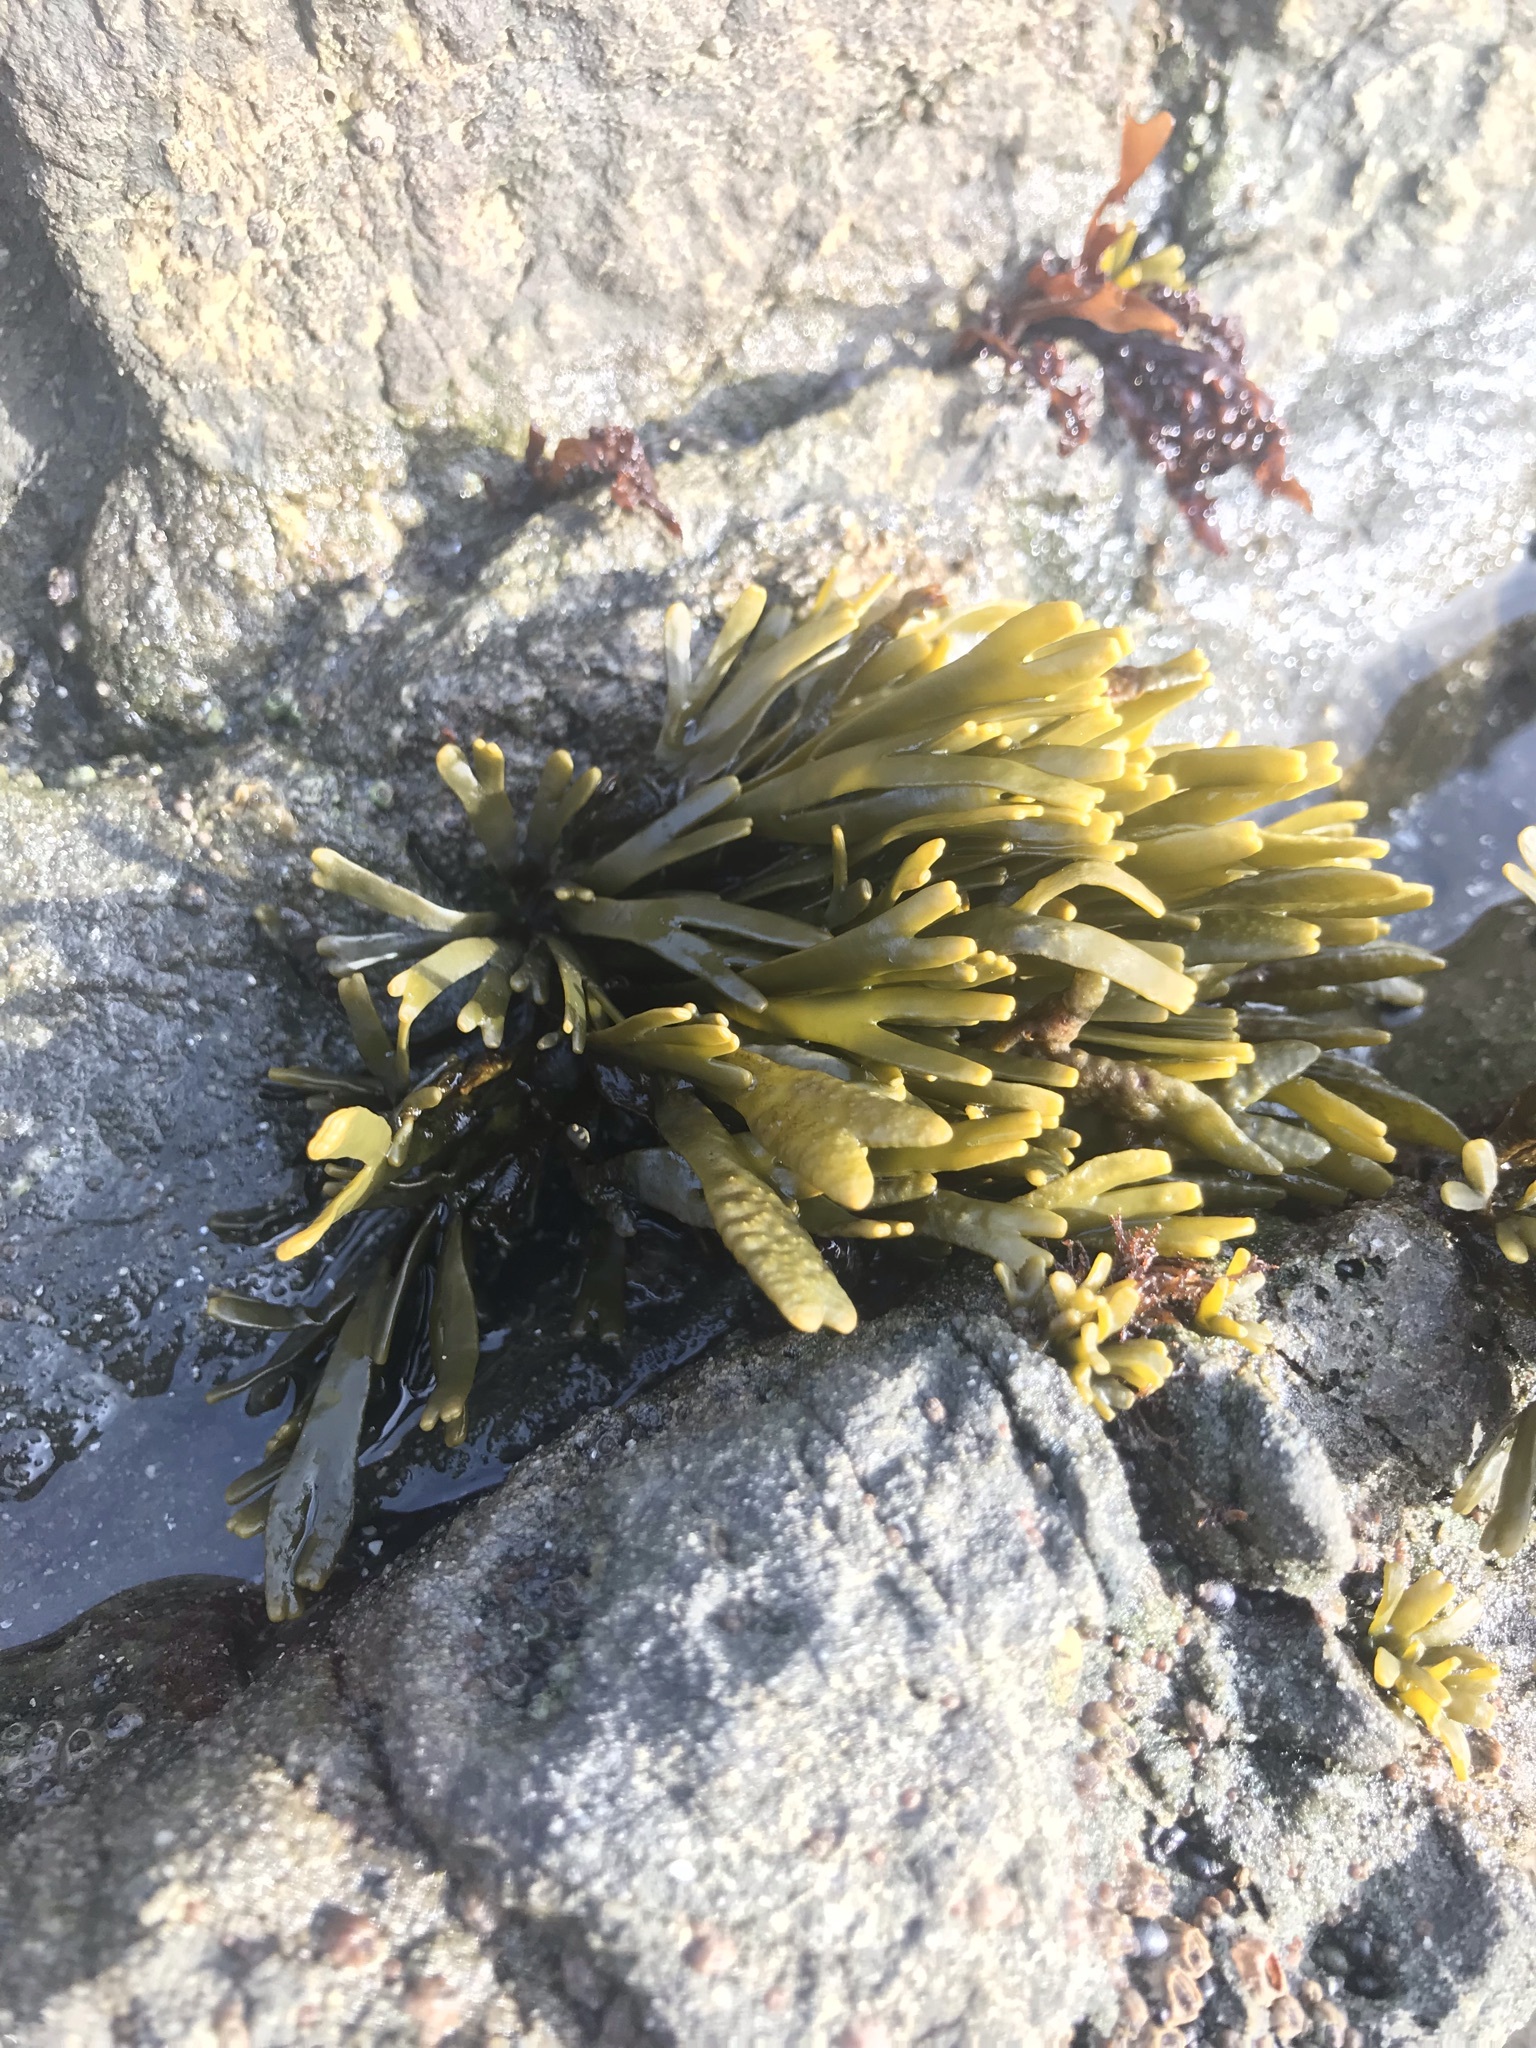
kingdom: Chromista
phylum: Ochrophyta
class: Phaeophyceae
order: Fucales
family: Fucaceae
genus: Pelvetiopsis
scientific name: Pelvetiopsis limitata
